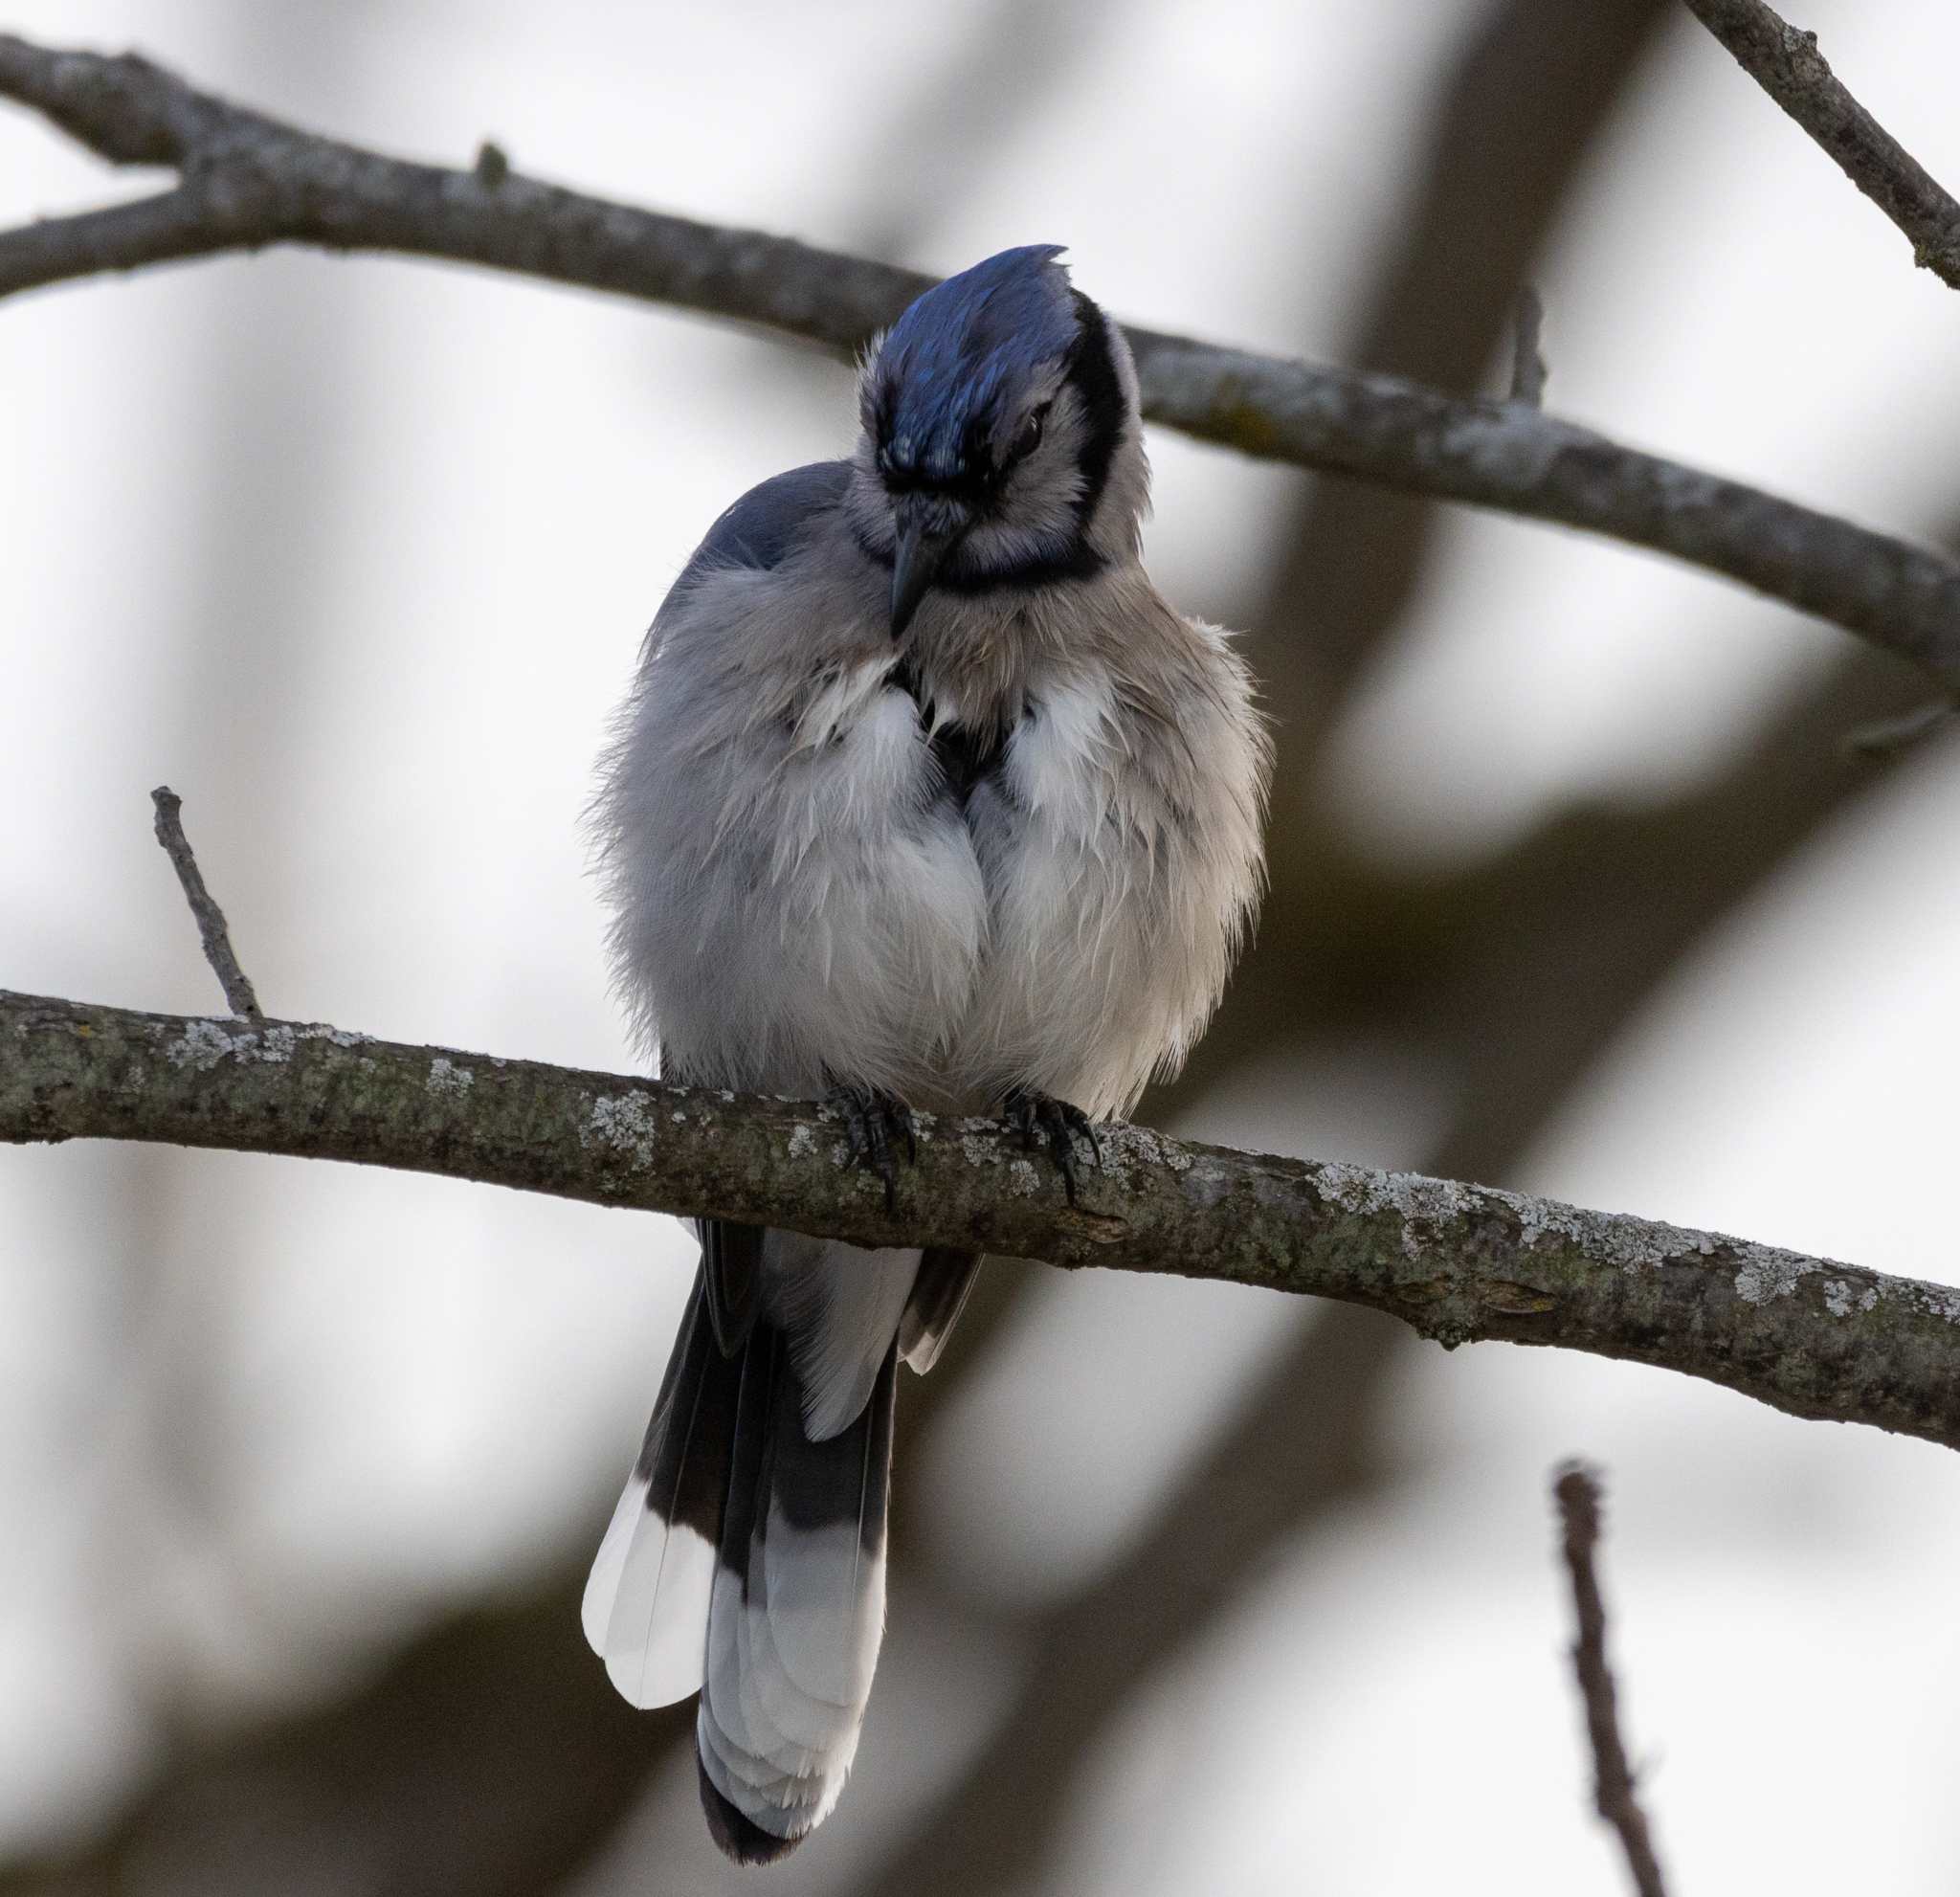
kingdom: Animalia
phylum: Chordata
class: Aves
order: Passeriformes
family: Corvidae
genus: Cyanocitta
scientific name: Cyanocitta cristata
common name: Blue jay
